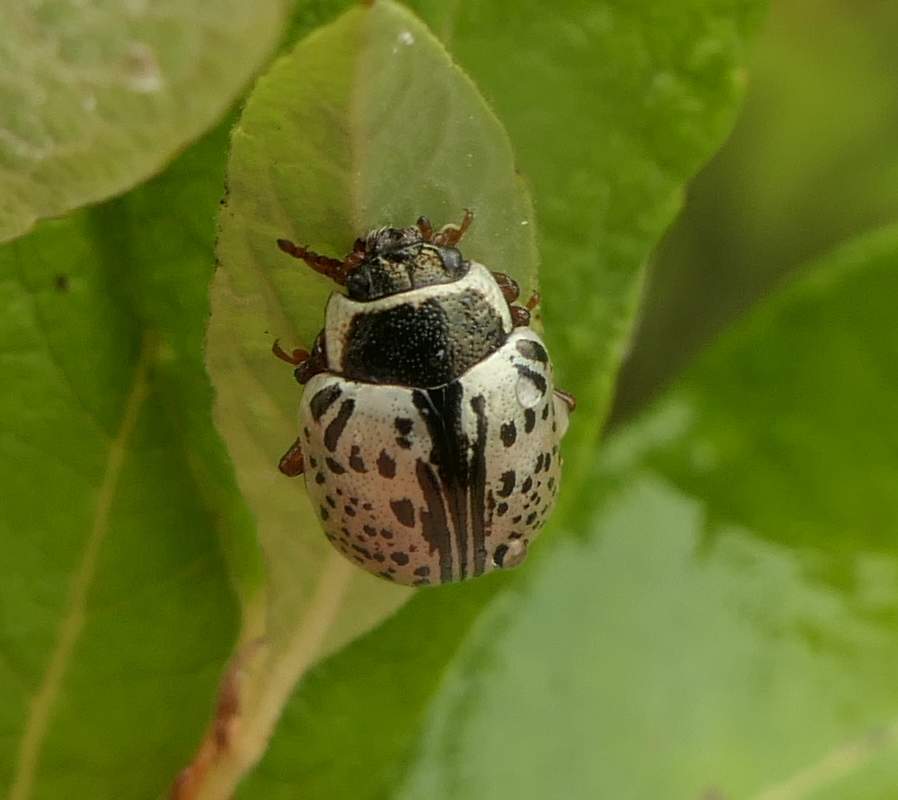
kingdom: Animalia
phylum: Arthropoda
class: Insecta
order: Coleoptera
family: Chrysomelidae
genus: Calligrapha
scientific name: Calligrapha multipunctata
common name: Common willow calligrapher beetle
